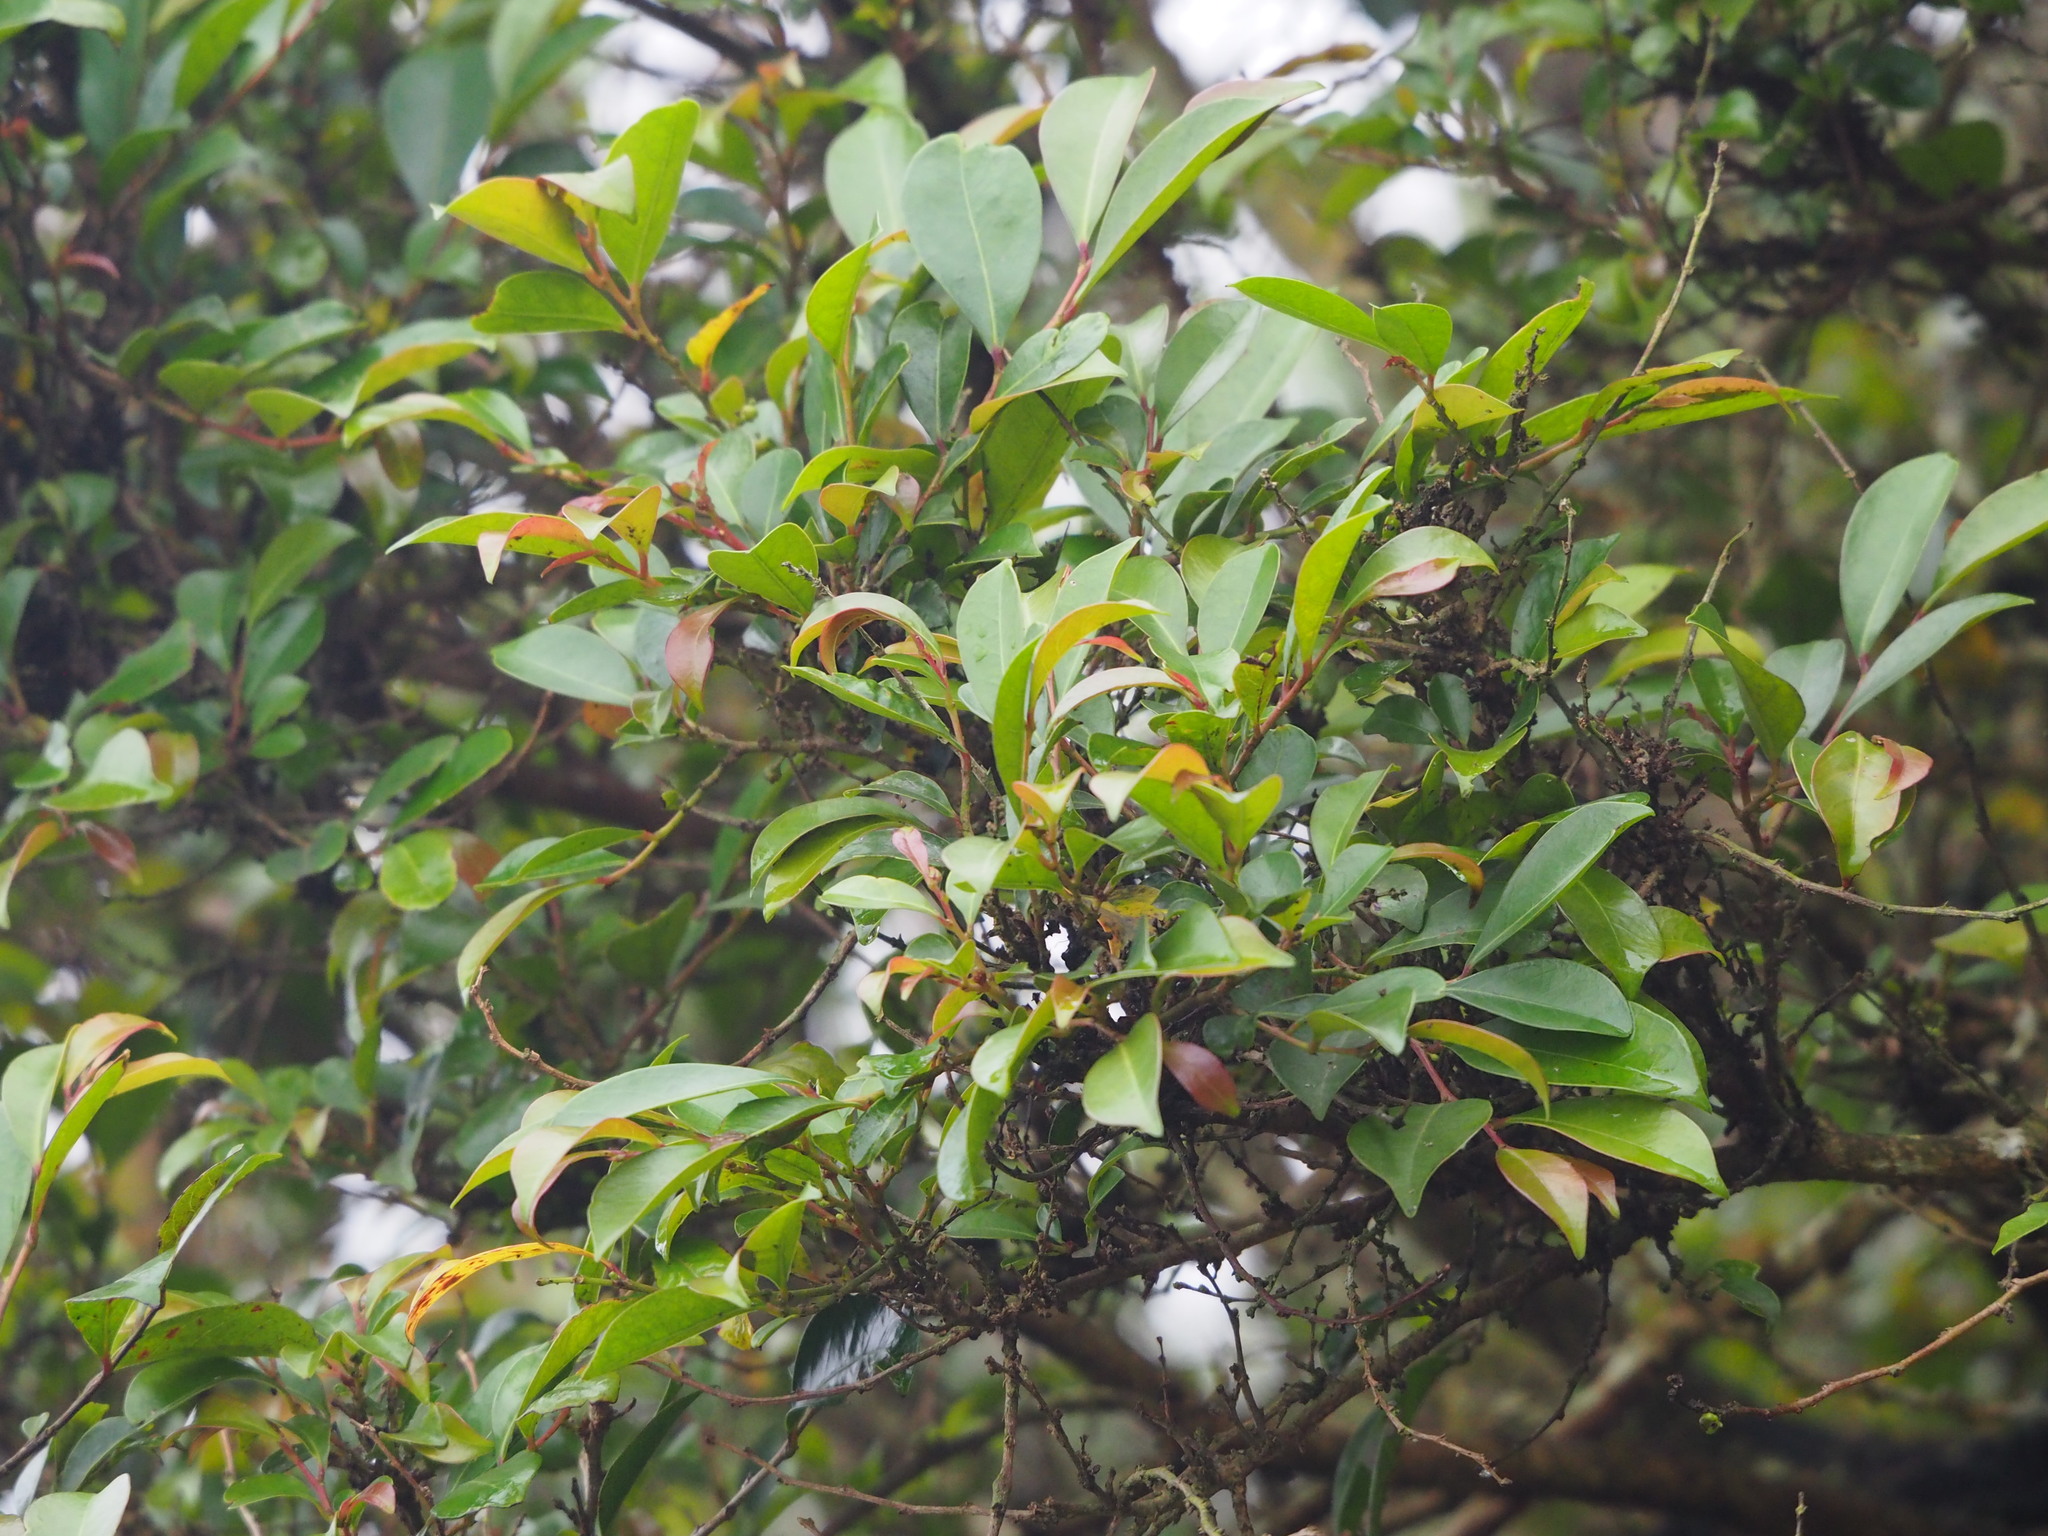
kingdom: Plantae
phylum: Tracheophyta
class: Magnoliopsida
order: Malpighiales
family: Phyllanthaceae
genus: Glochidion
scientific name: Glochidion rubrum
